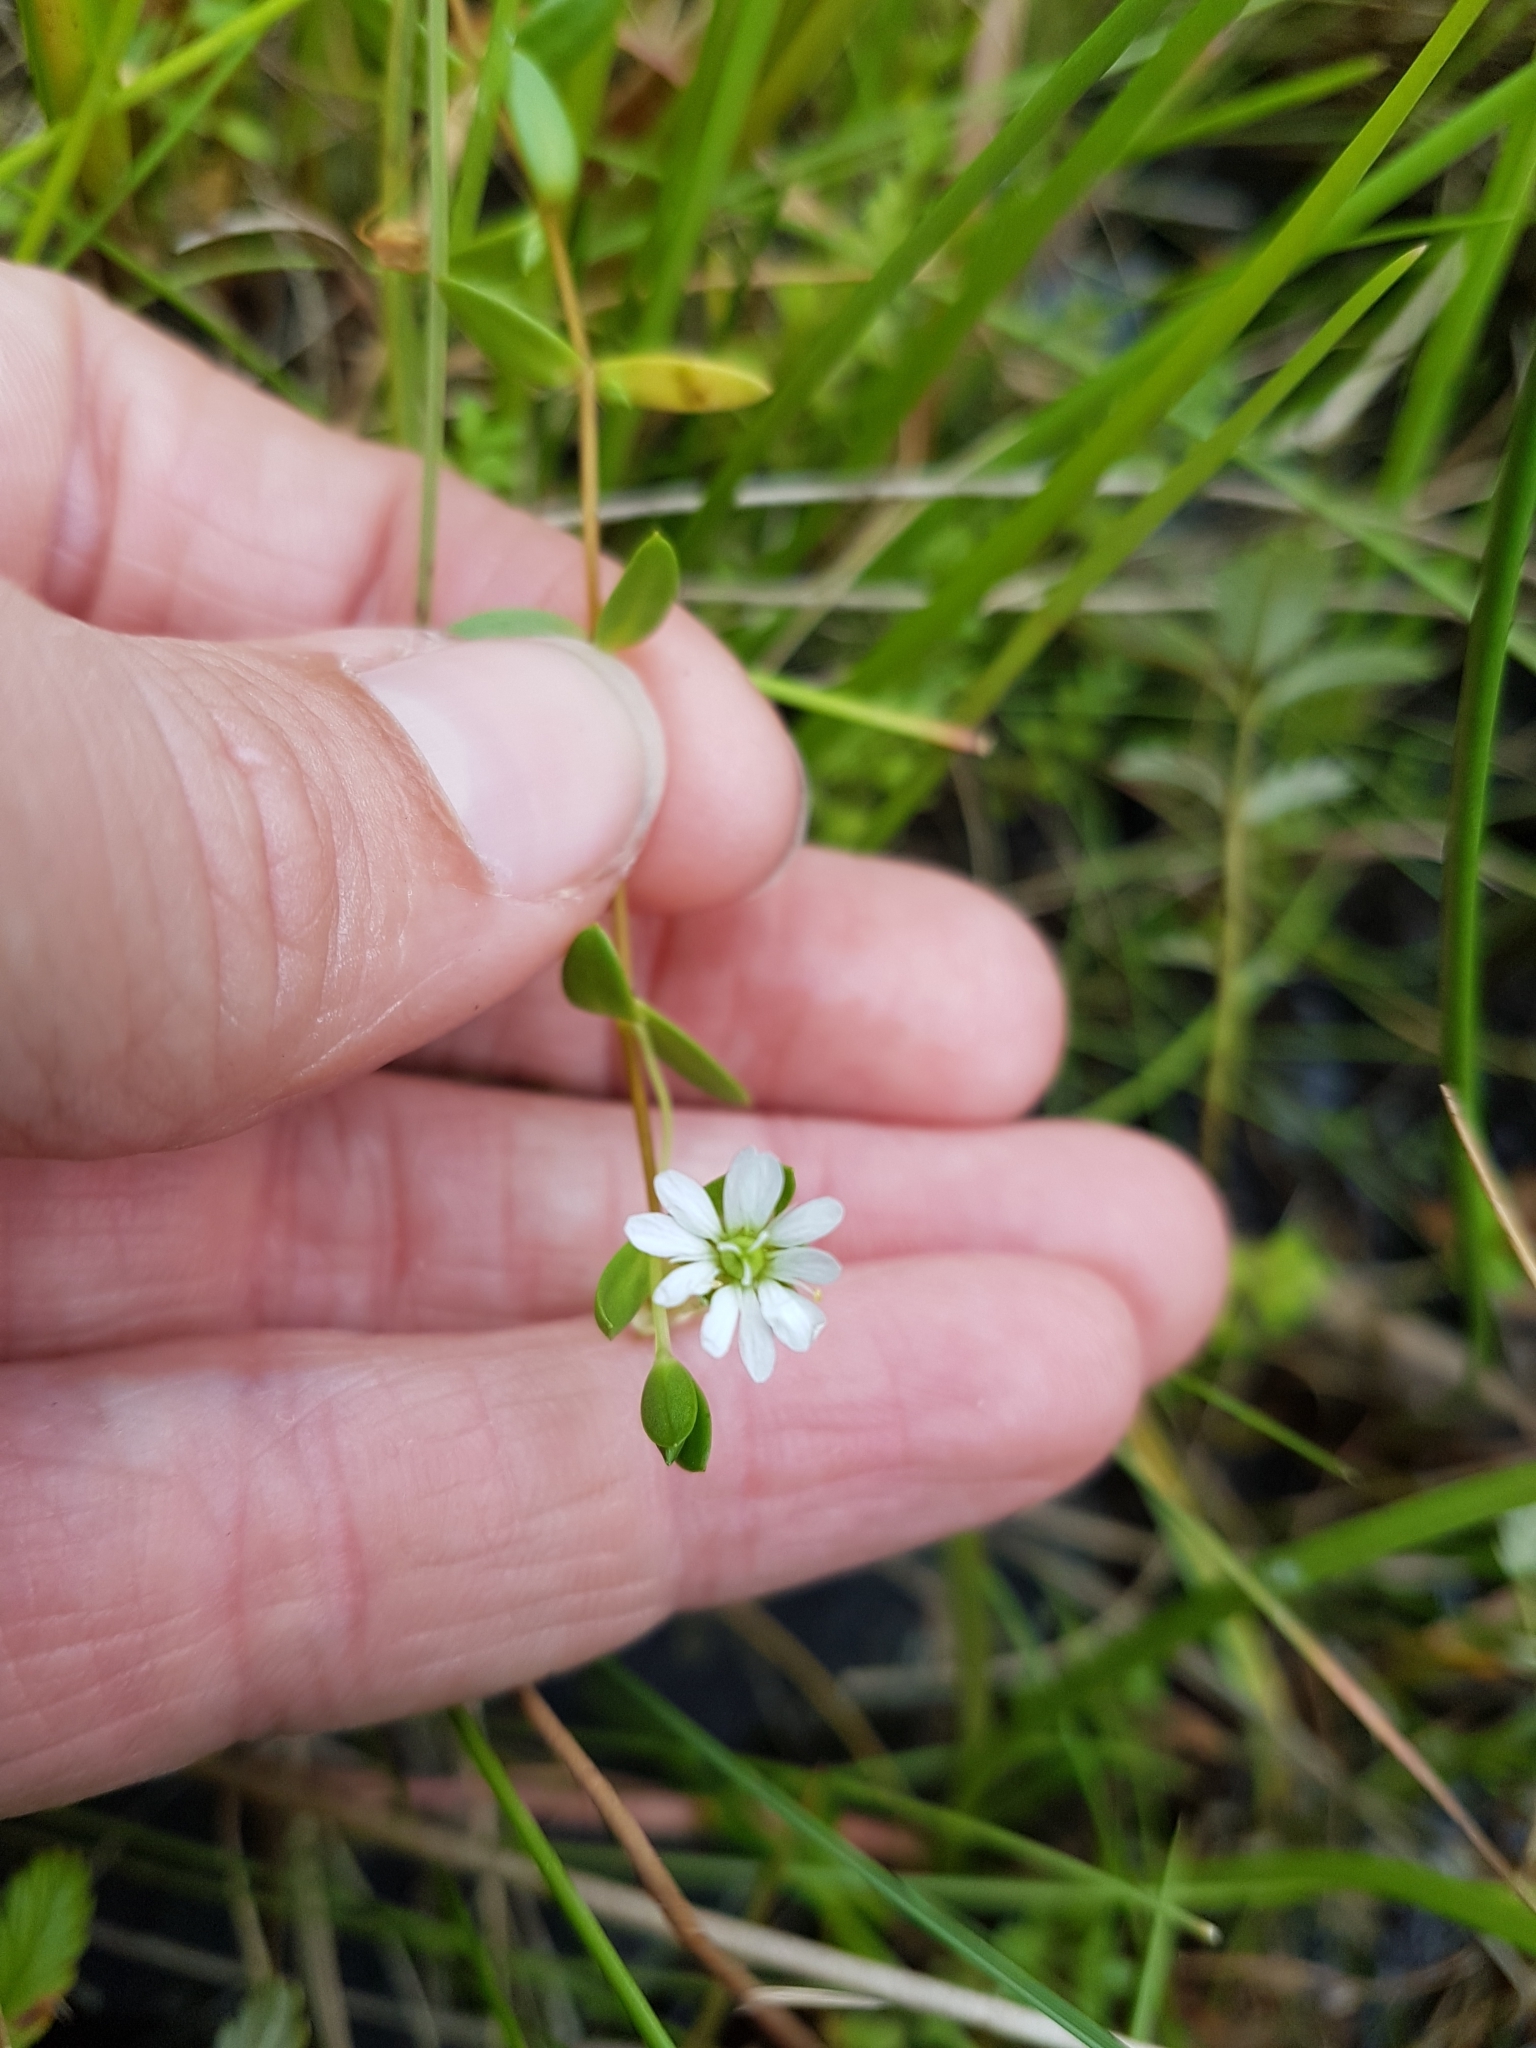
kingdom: Plantae
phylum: Tracheophyta
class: Magnoliopsida
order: Caryophyllales
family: Caryophyllaceae
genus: Stellaria
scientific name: Stellaria humifusa
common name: Creeping starwort
